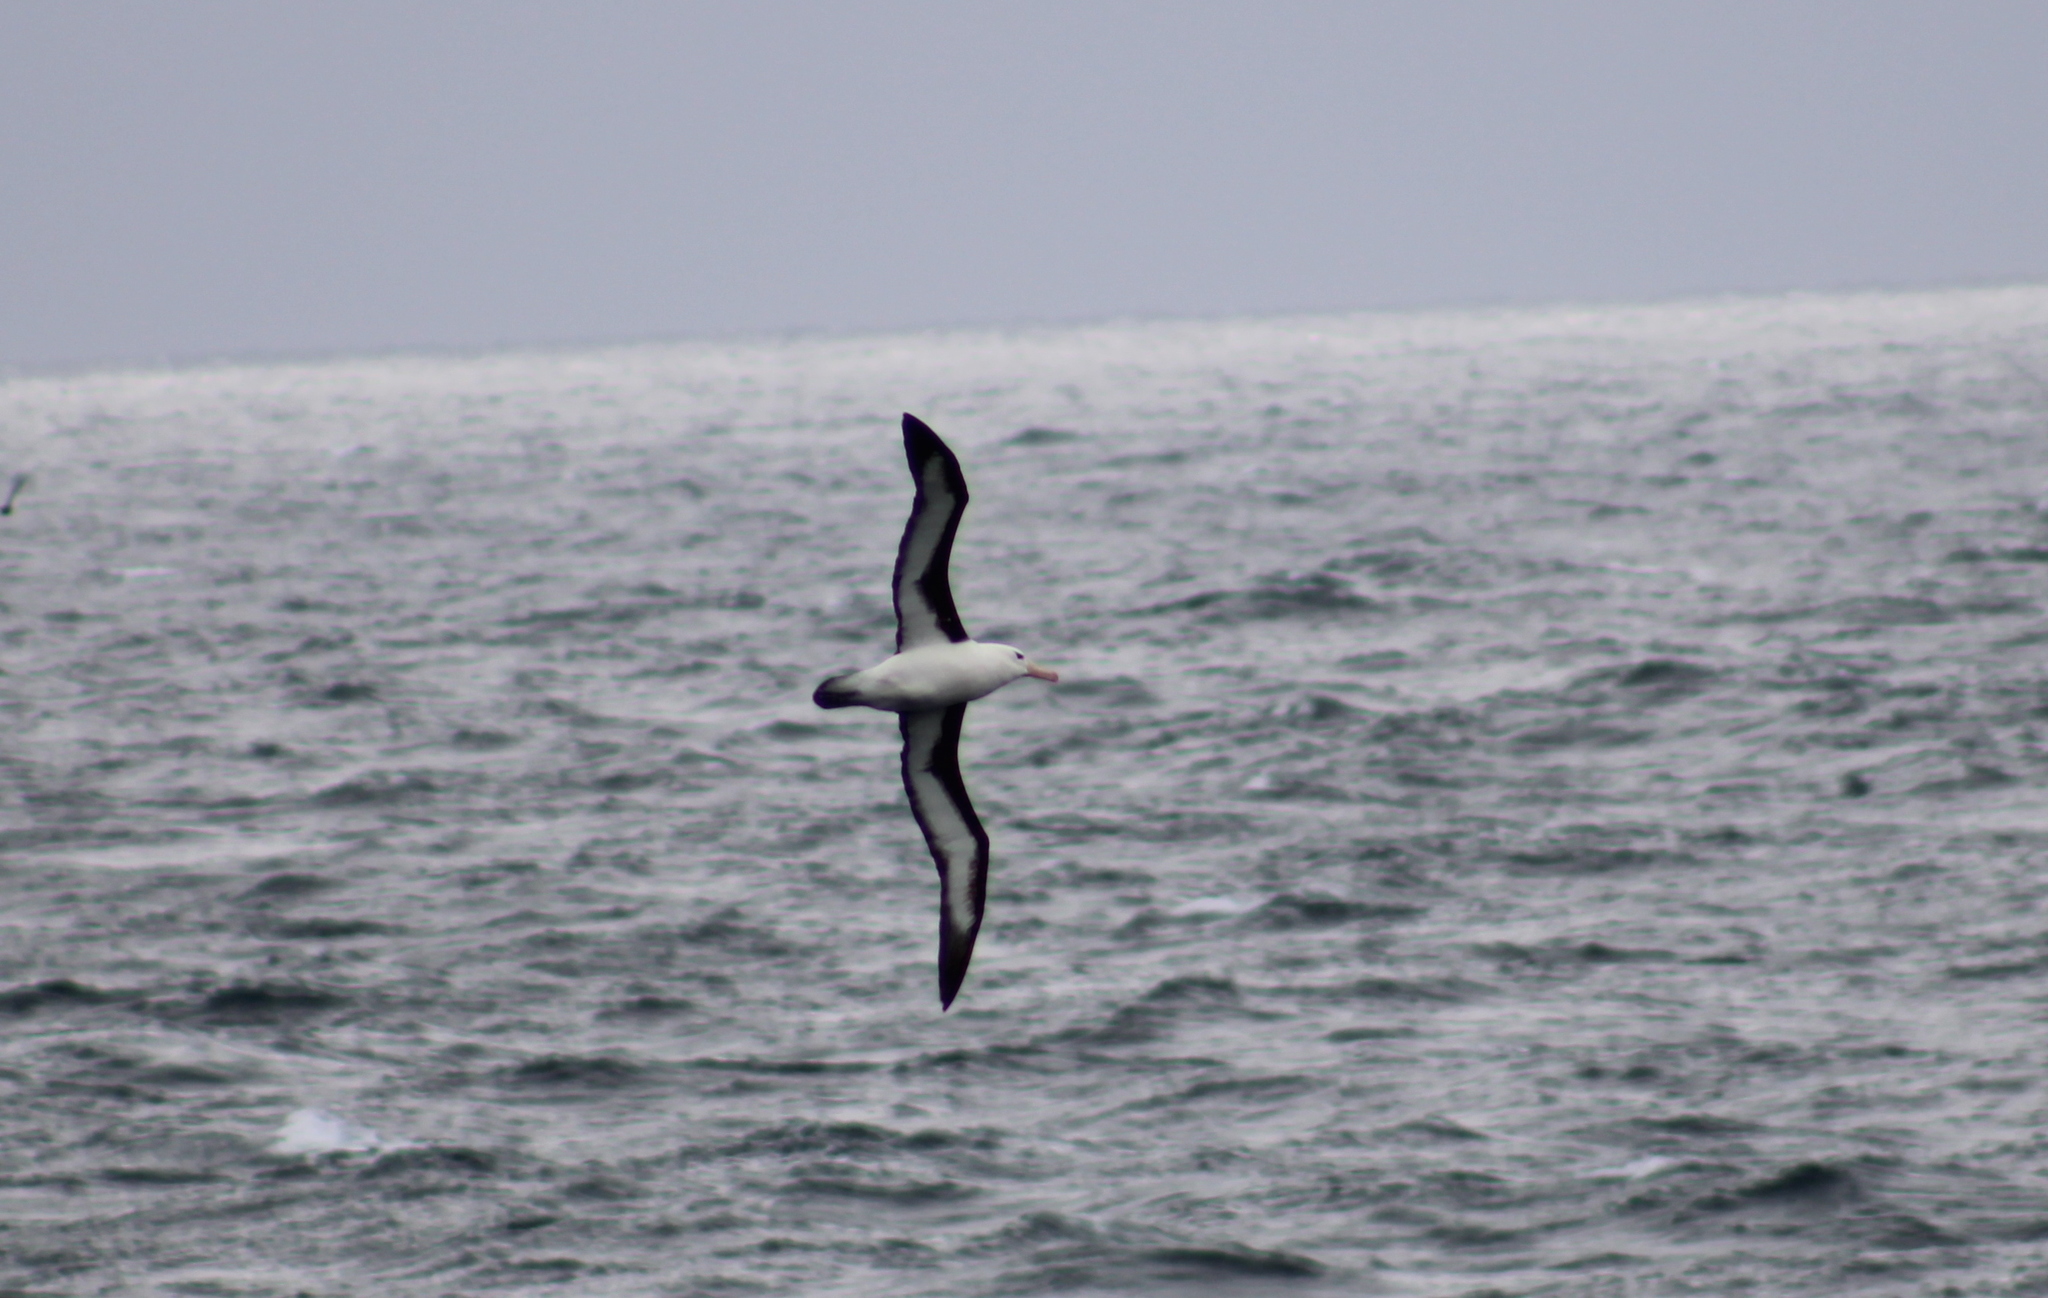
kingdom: Animalia
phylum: Chordata
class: Aves
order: Procellariiformes
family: Diomedeidae
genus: Thalassarche
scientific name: Thalassarche melanophris
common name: Black-browed albatross
